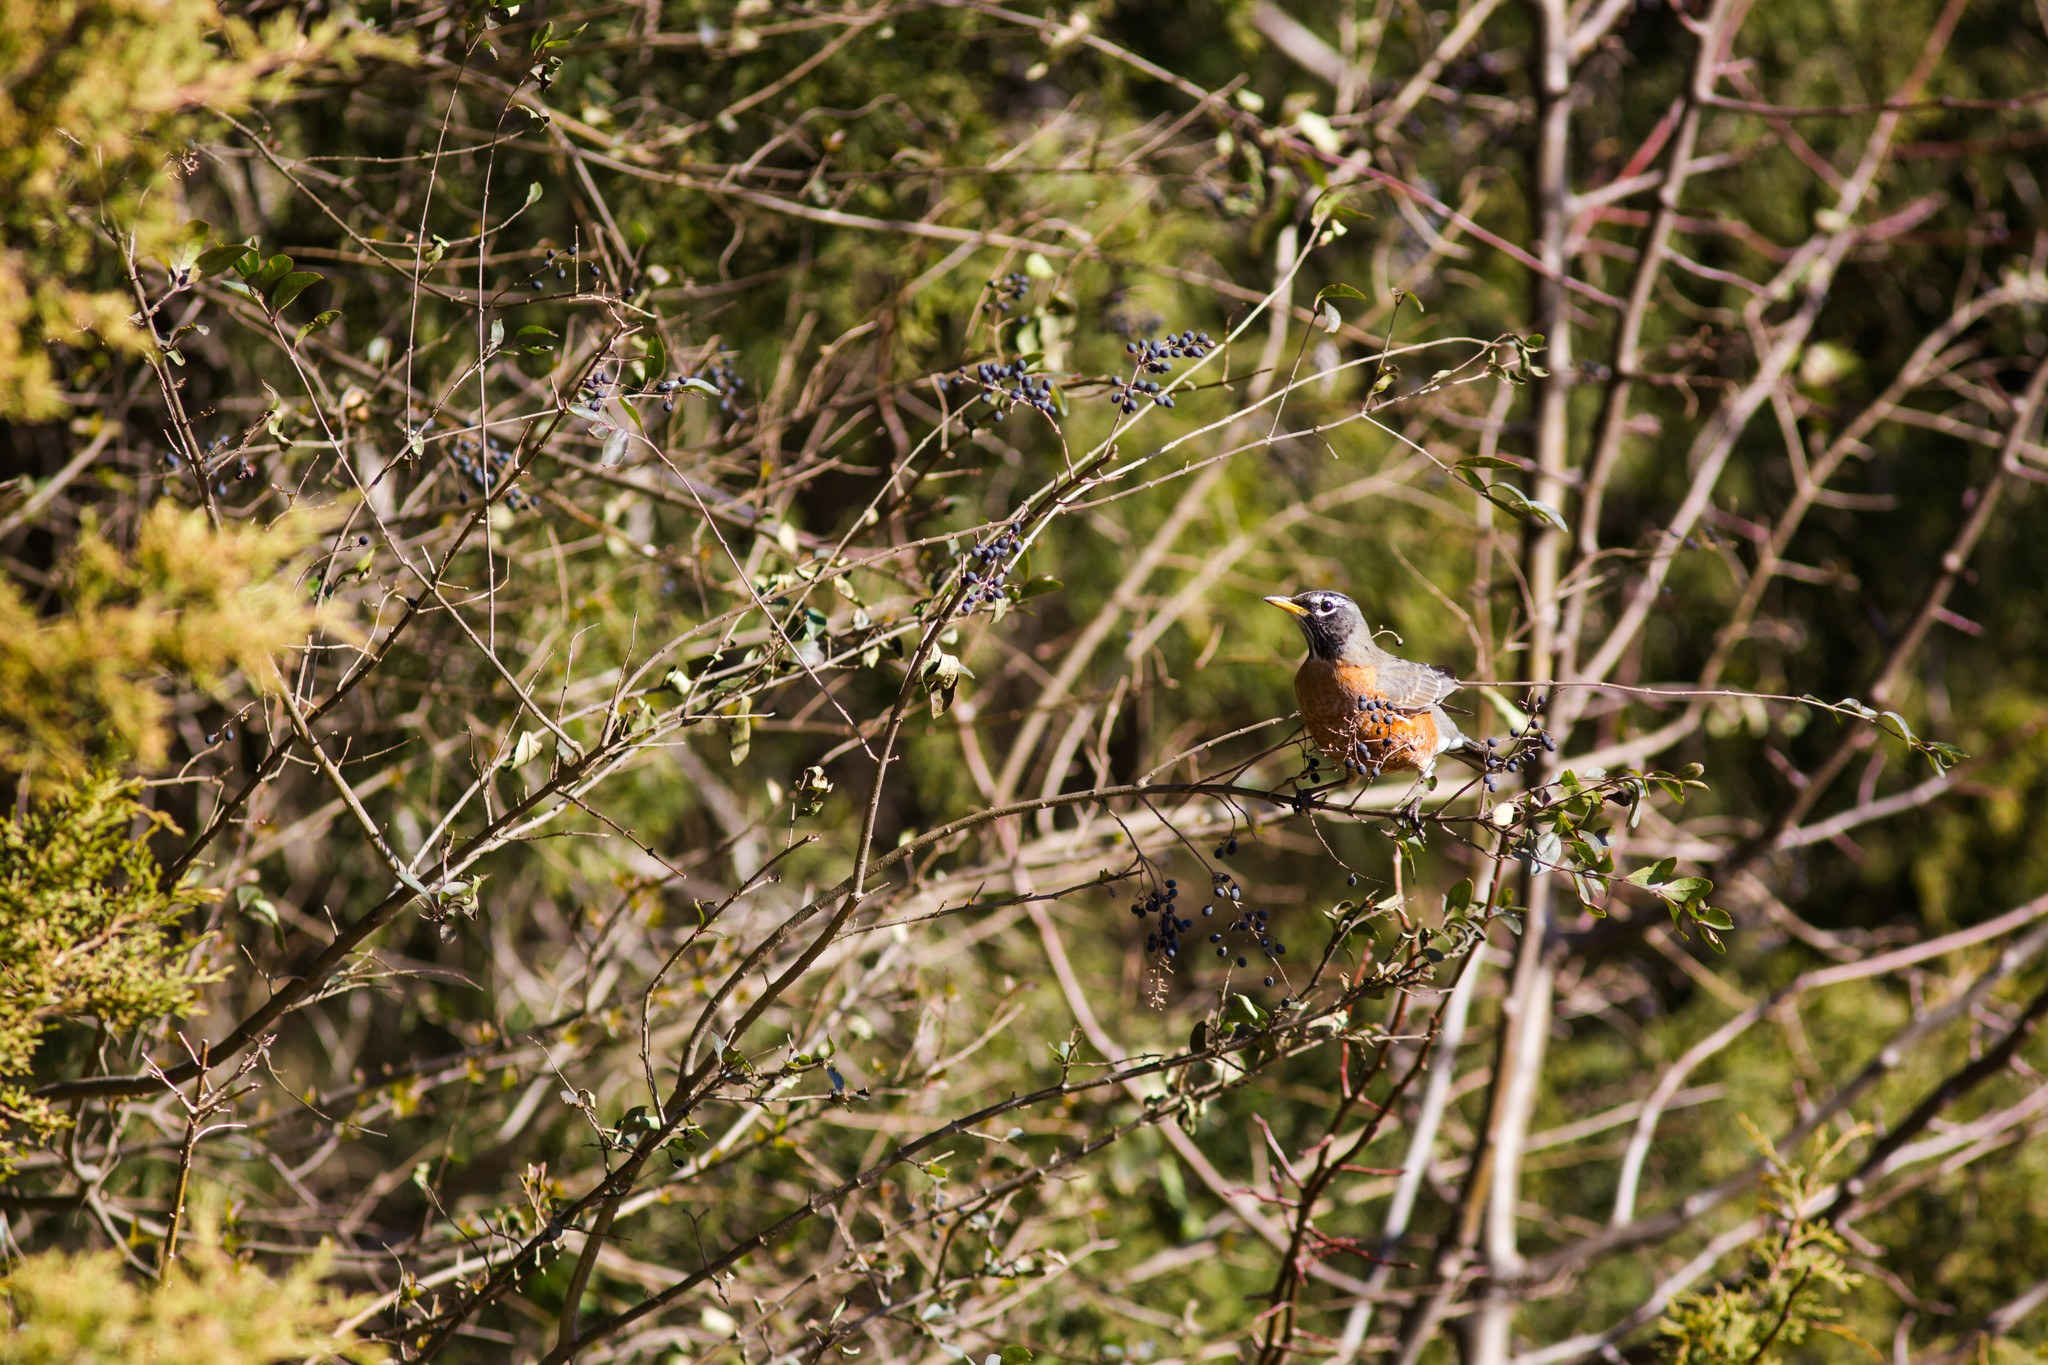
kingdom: Animalia
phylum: Chordata
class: Aves
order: Passeriformes
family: Turdidae
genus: Turdus
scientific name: Turdus migratorius
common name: American robin
